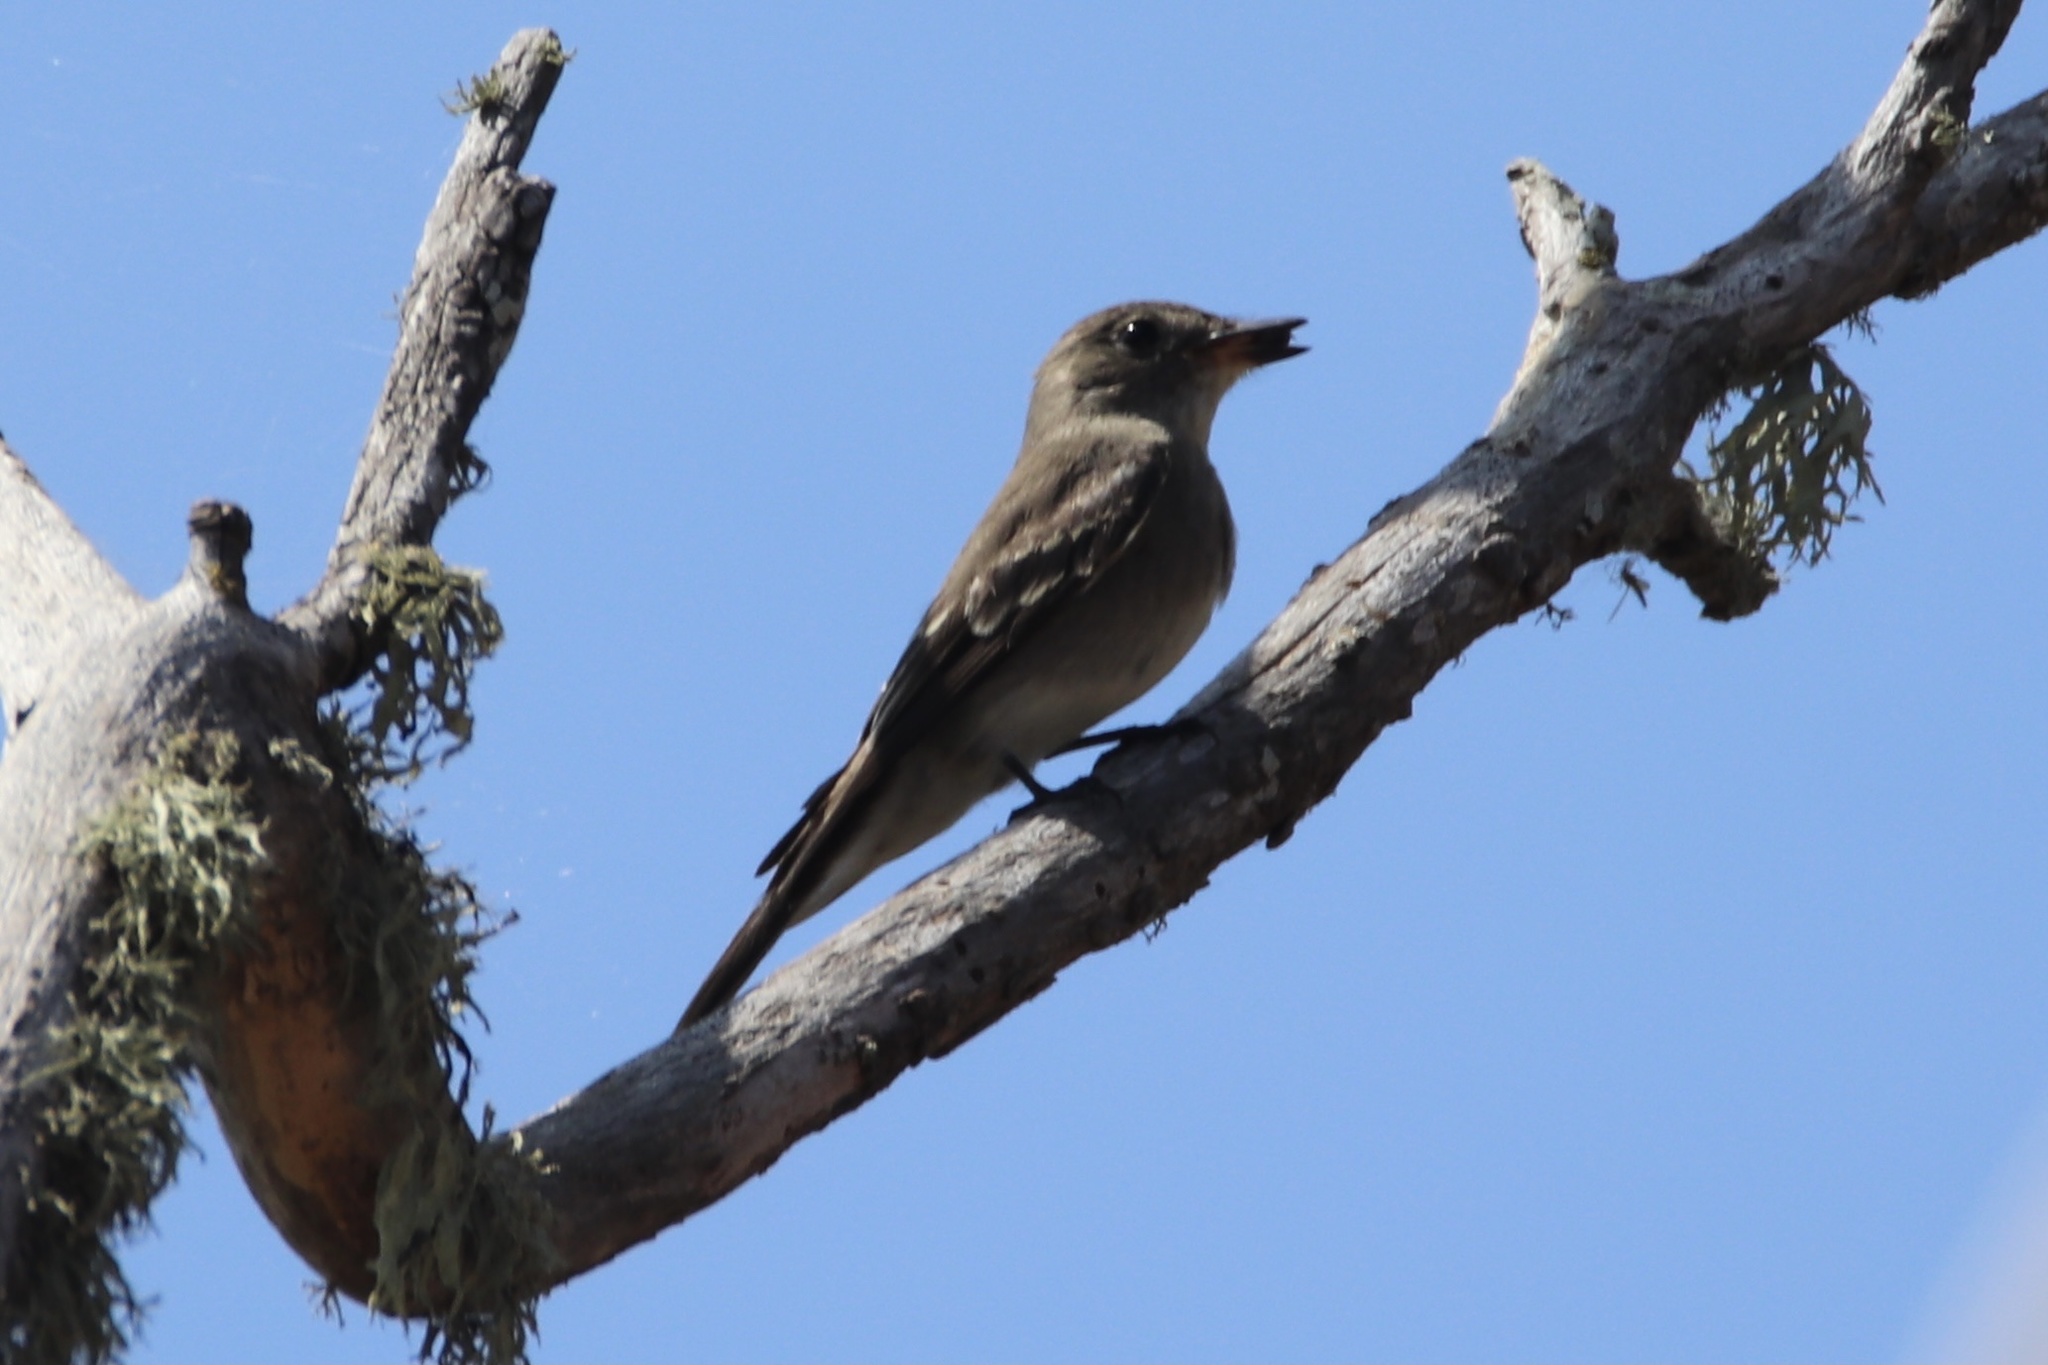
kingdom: Animalia
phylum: Chordata
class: Aves
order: Passeriformes
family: Tyrannidae
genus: Contopus
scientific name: Contopus sordidulus
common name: Western wood-pewee
